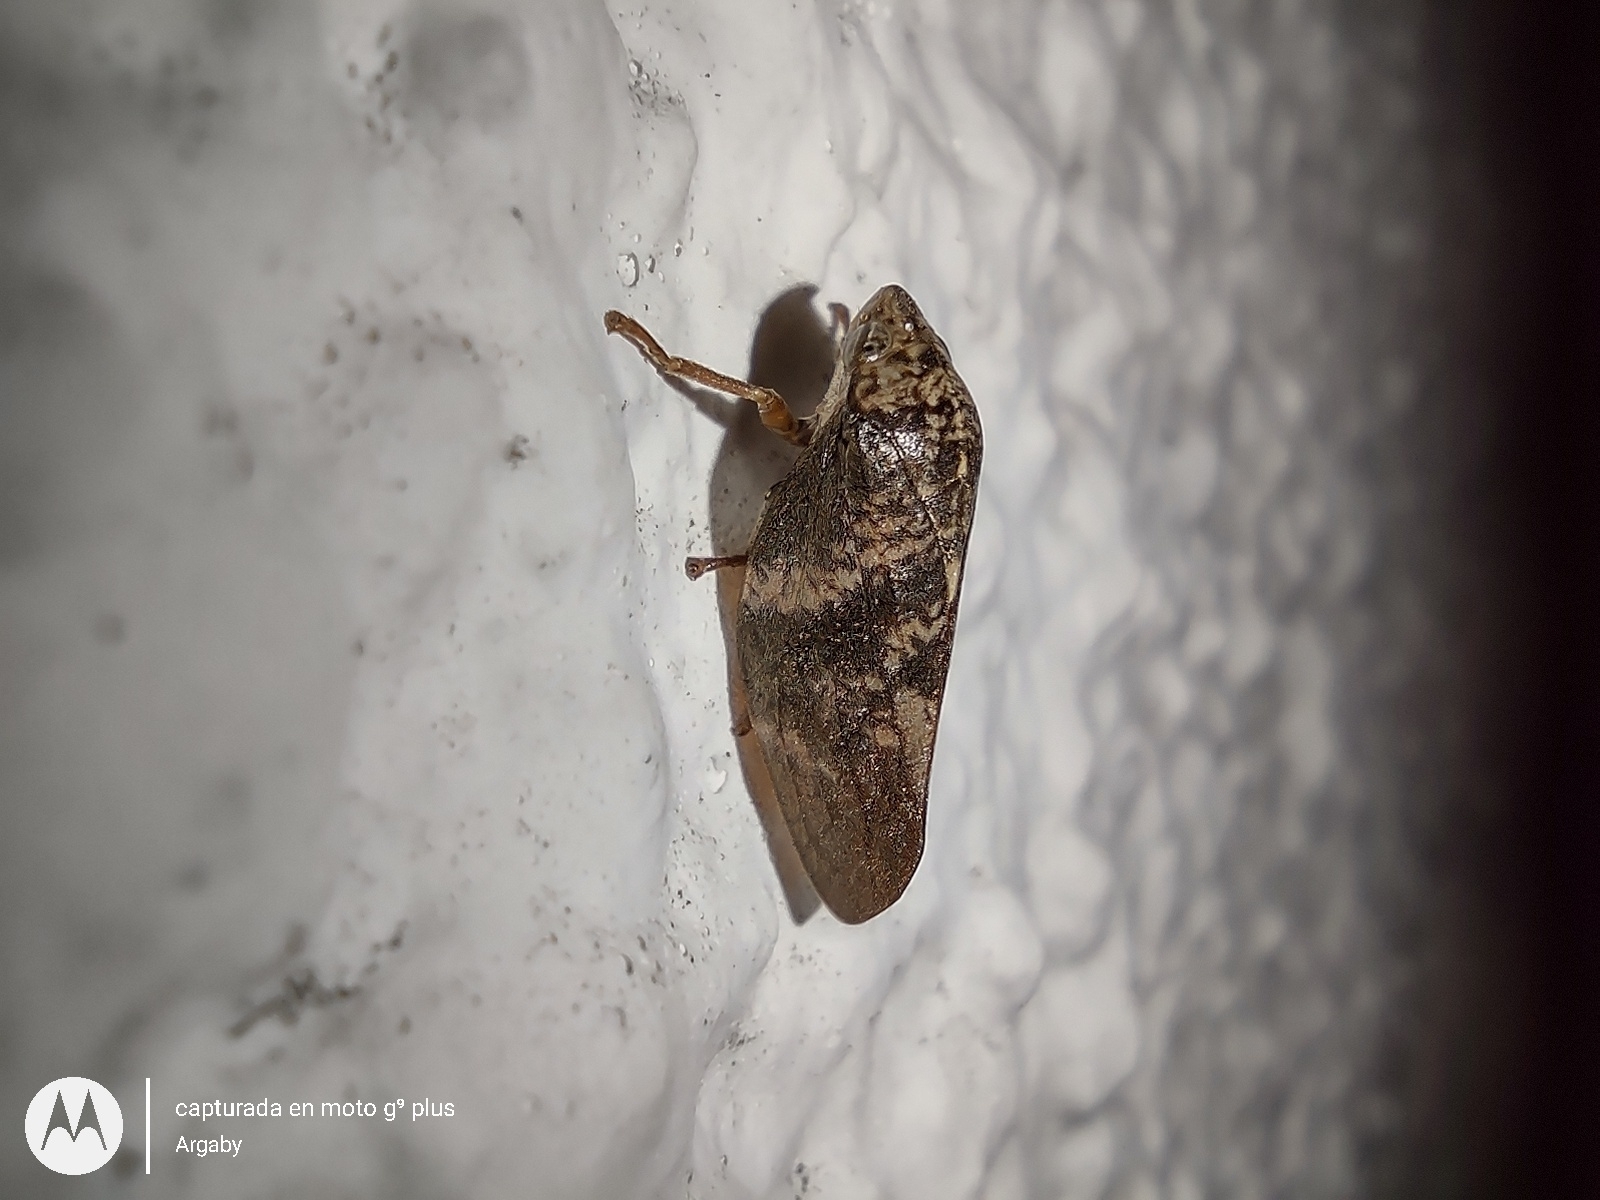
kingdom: Animalia
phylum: Arthropoda
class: Insecta
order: Hemiptera
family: Aphrophoridae
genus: Cephisus
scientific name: Cephisus siccifolius
